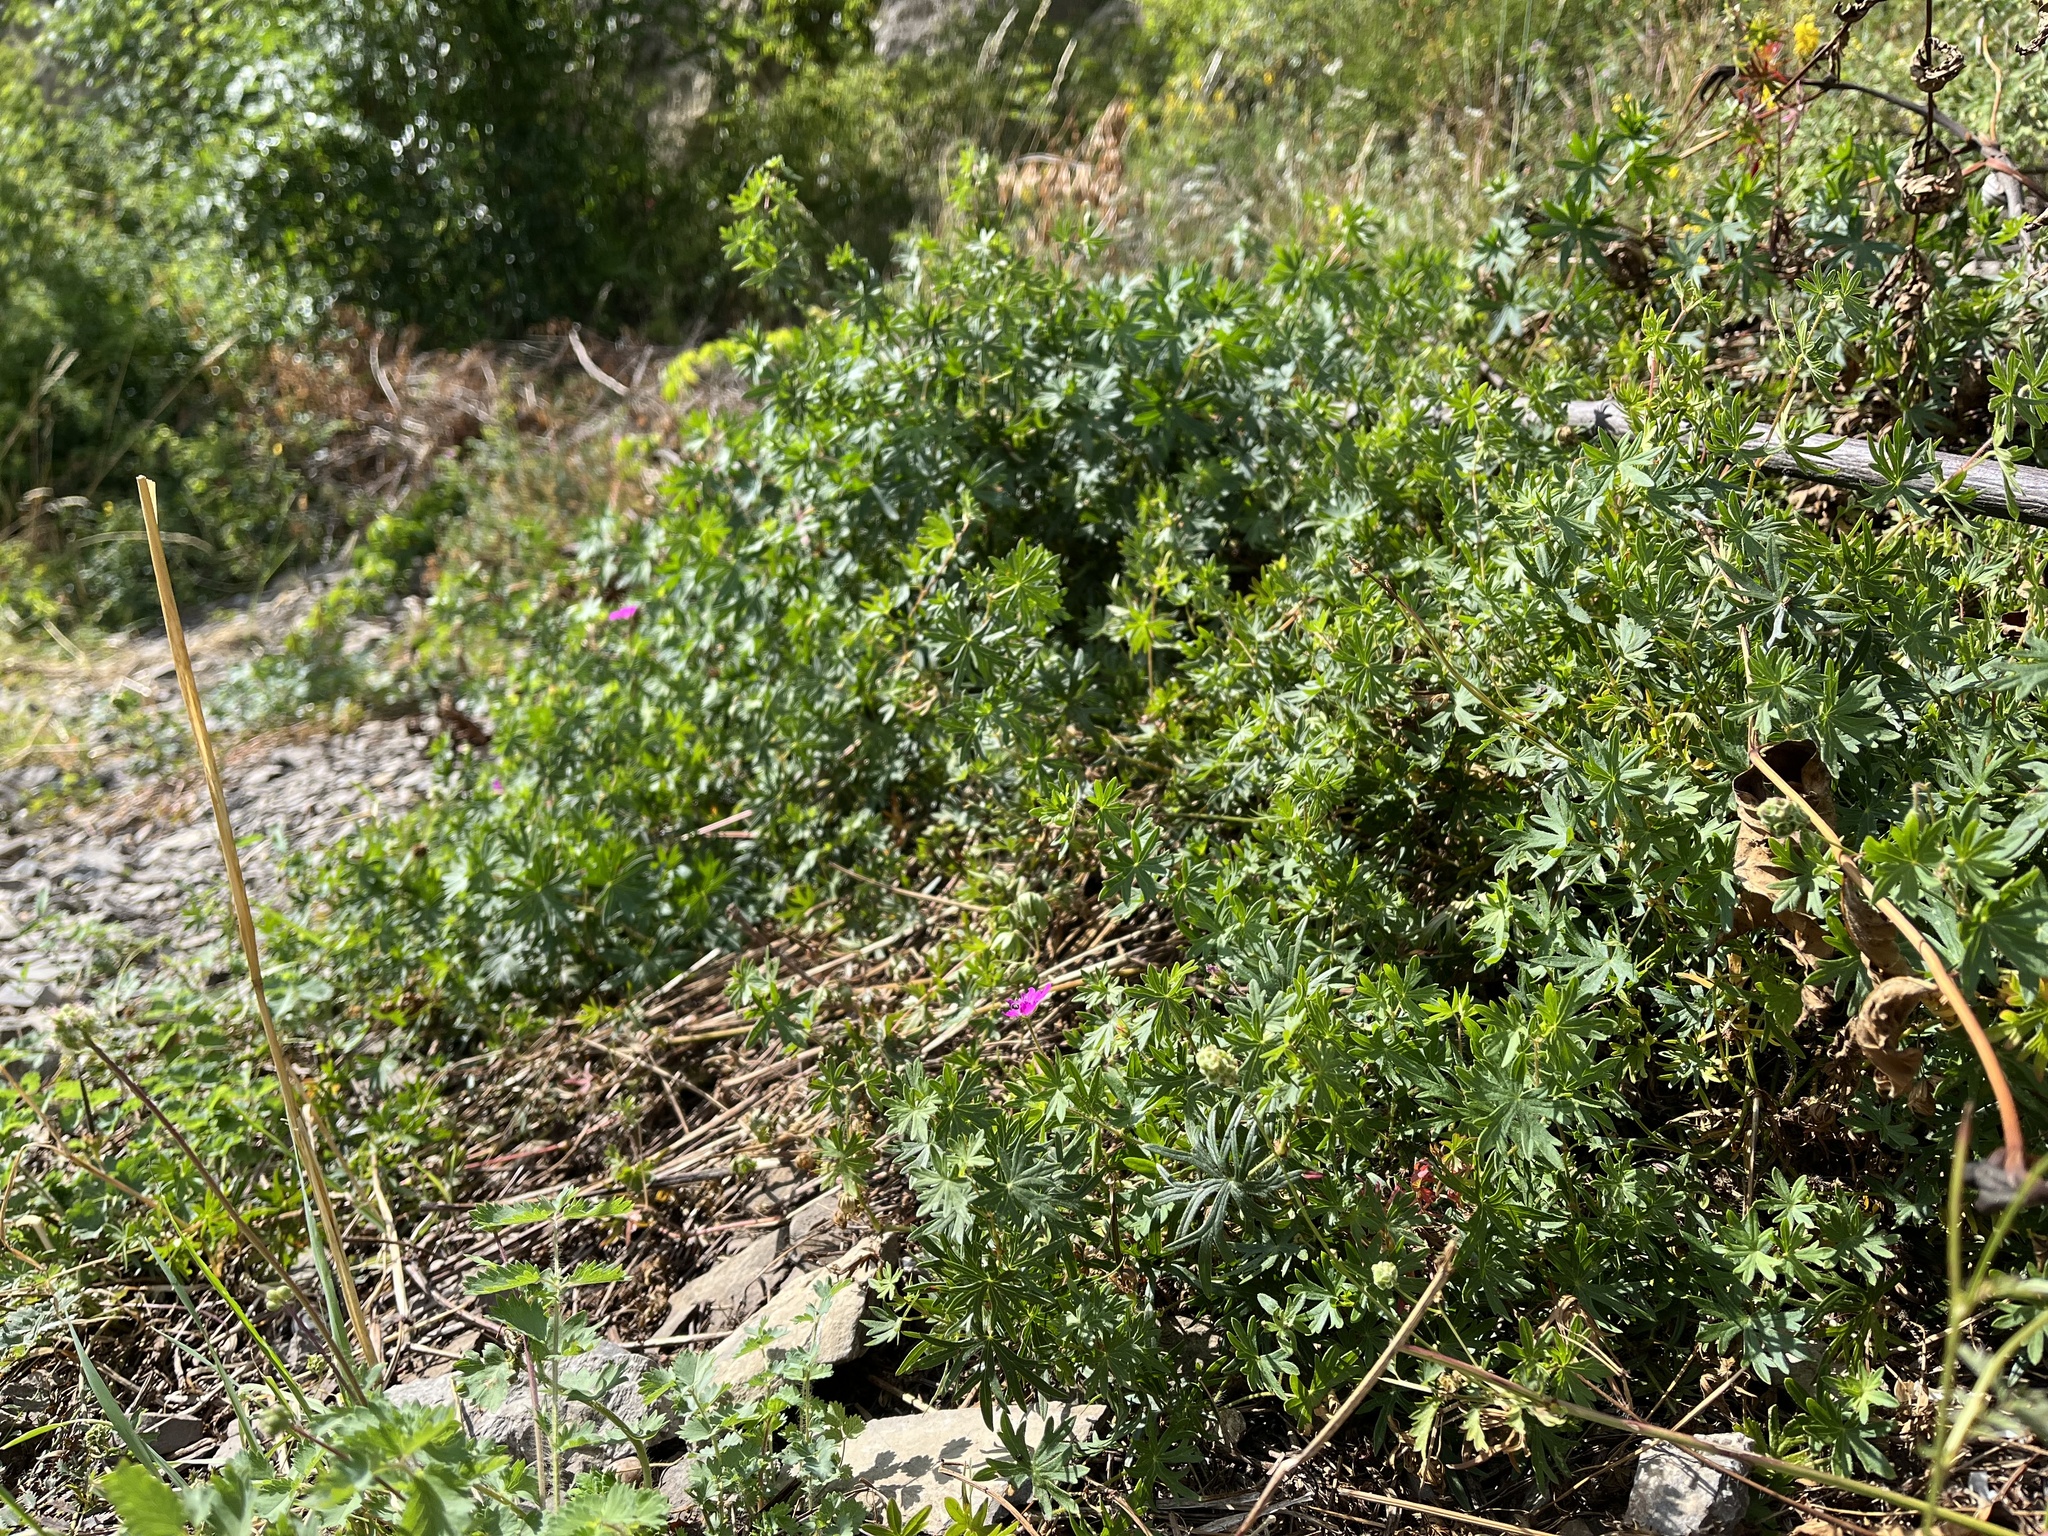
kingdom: Plantae
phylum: Tracheophyta
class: Magnoliopsida
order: Geraniales
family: Geraniaceae
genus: Geranium
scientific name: Geranium sanguineum
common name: Bloody crane's-bill
